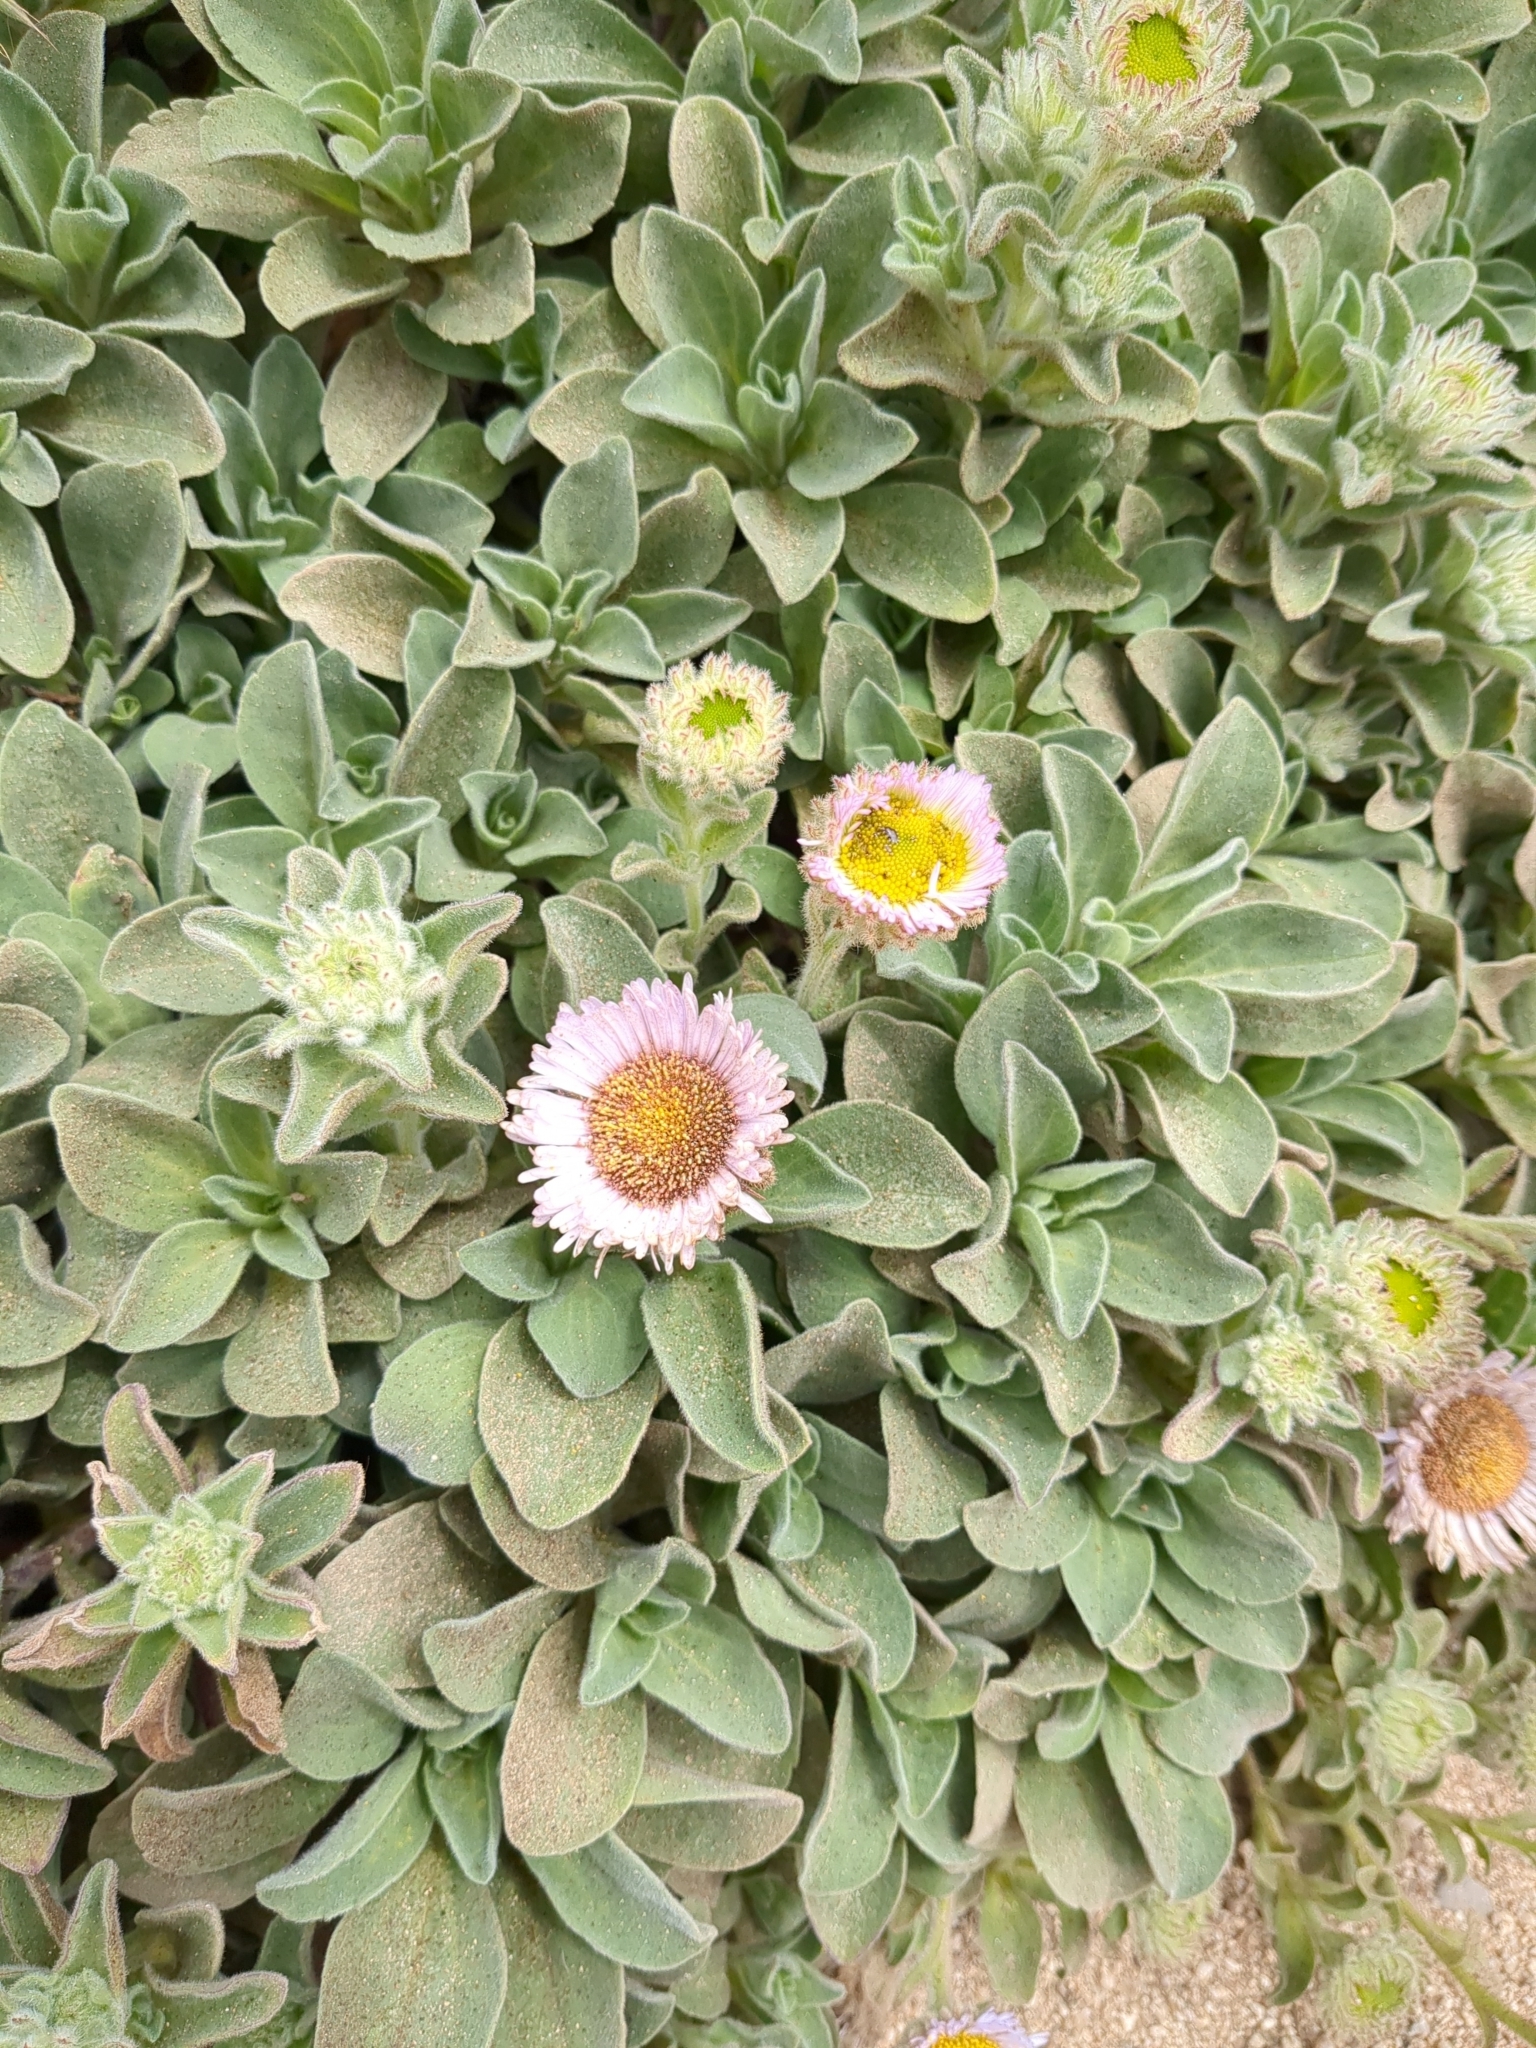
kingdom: Plantae
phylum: Tracheophyta
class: Magnoliopsida
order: Asterales
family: Asteraceae
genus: Erigeron
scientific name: Erigeron glaucus
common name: Seaside daisy
